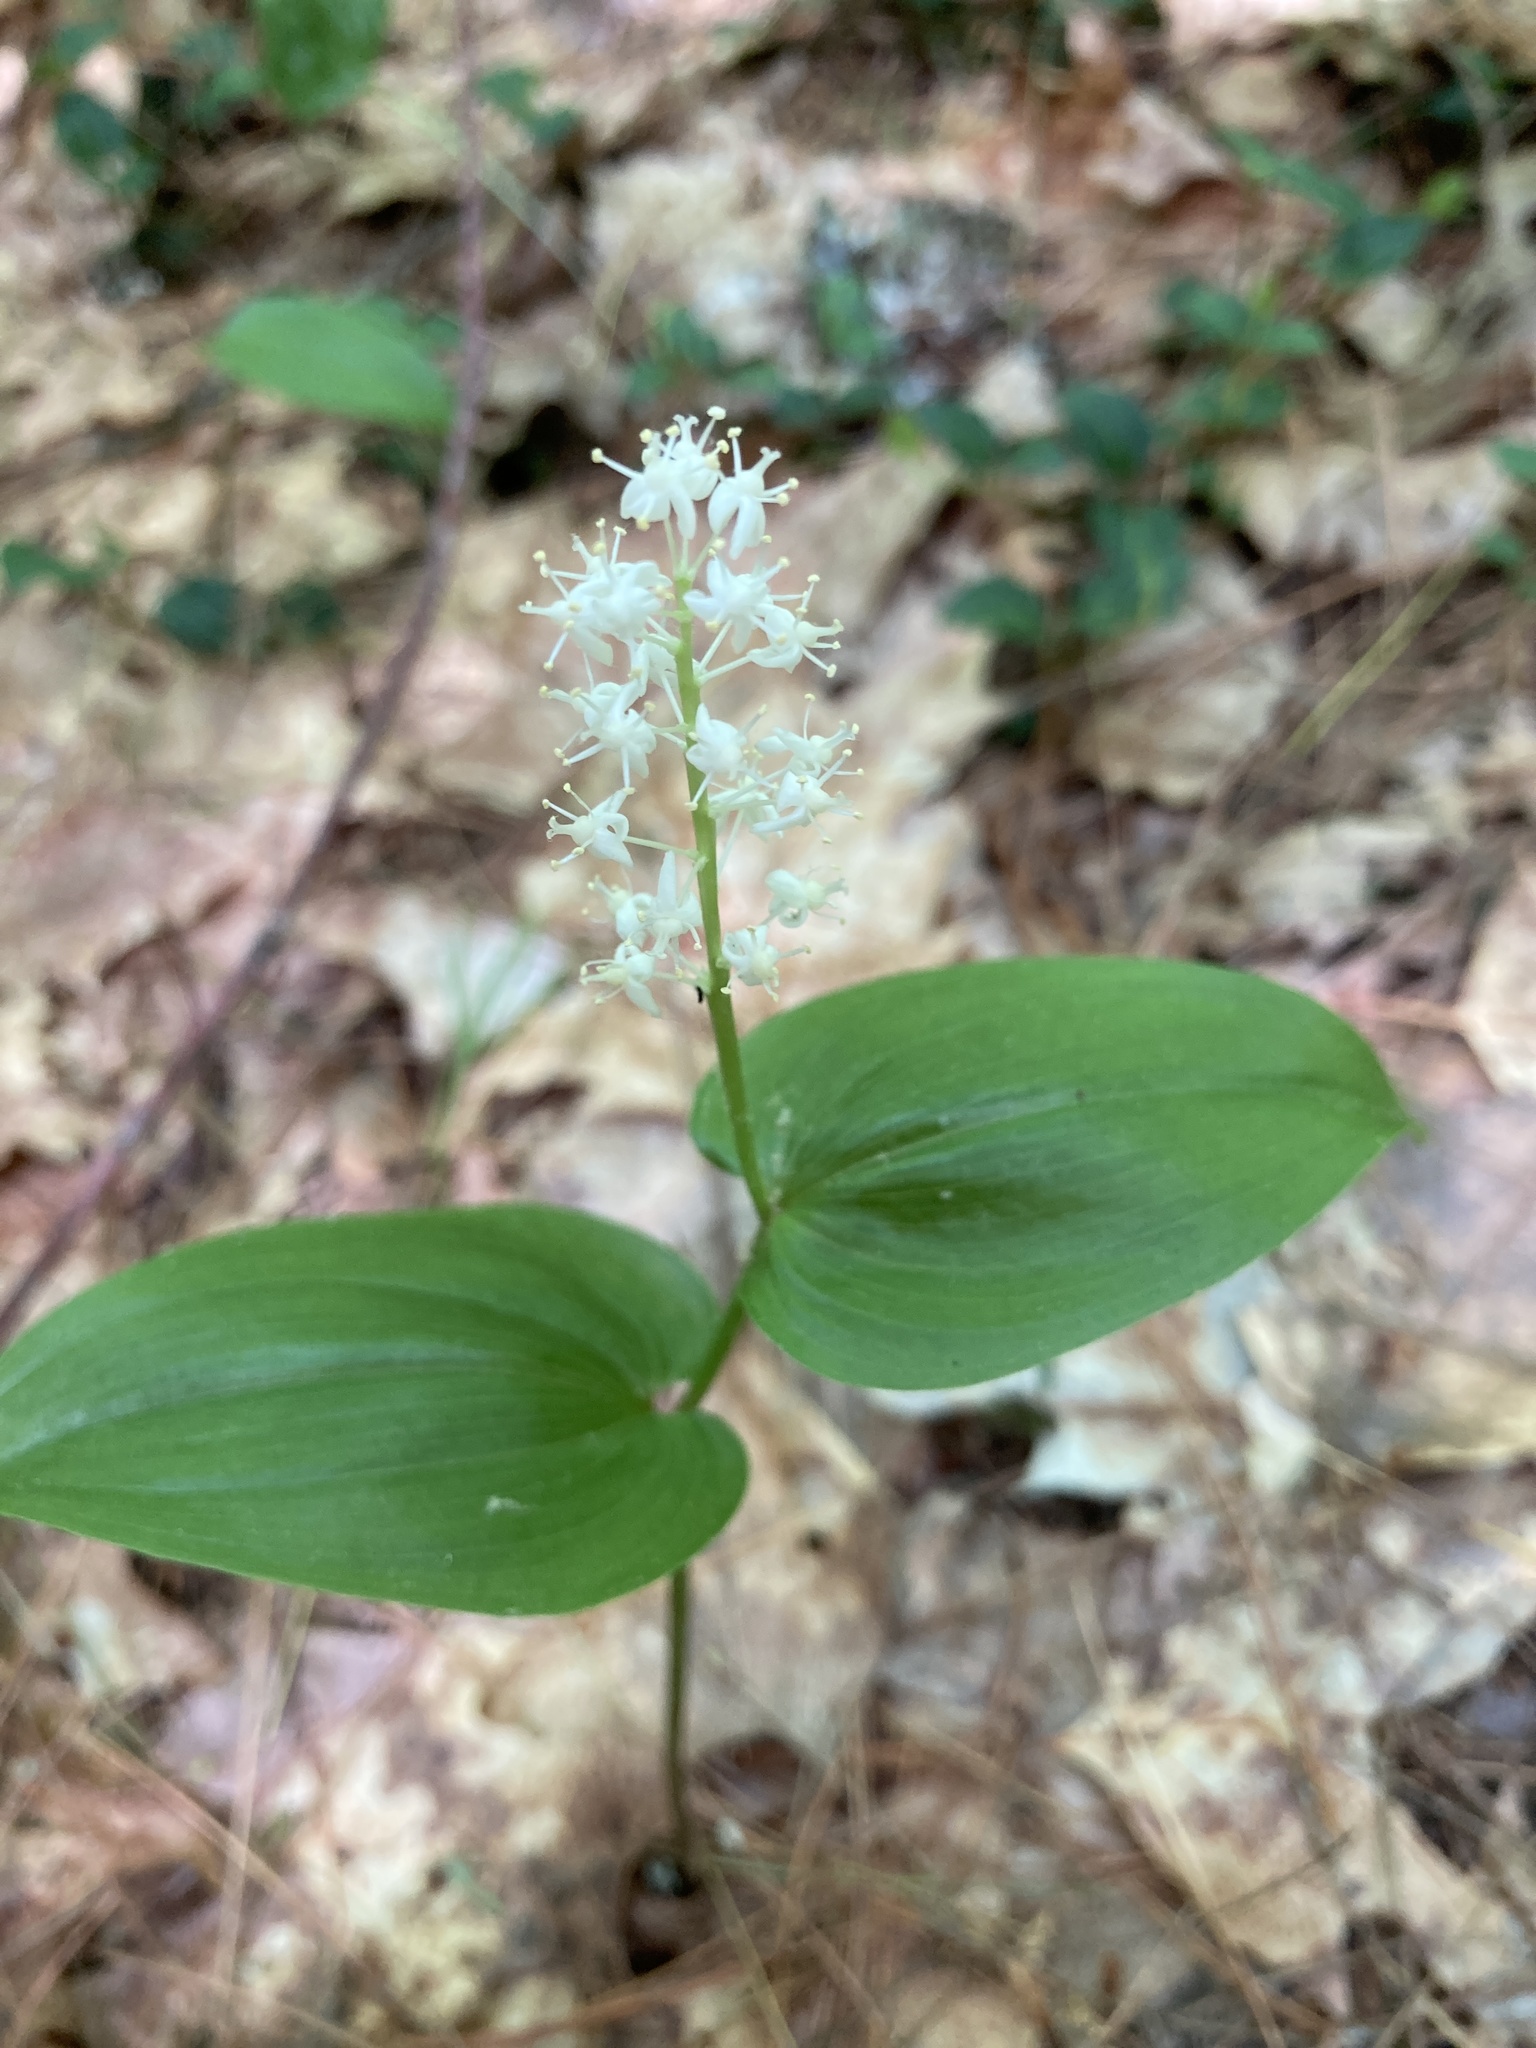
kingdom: Plantae
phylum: Tracheophyta
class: Liliopsida
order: Asparagales
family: Asparagaceae
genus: Maianthemum
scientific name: Maianthemum canadense
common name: False lily-of-the-valley
